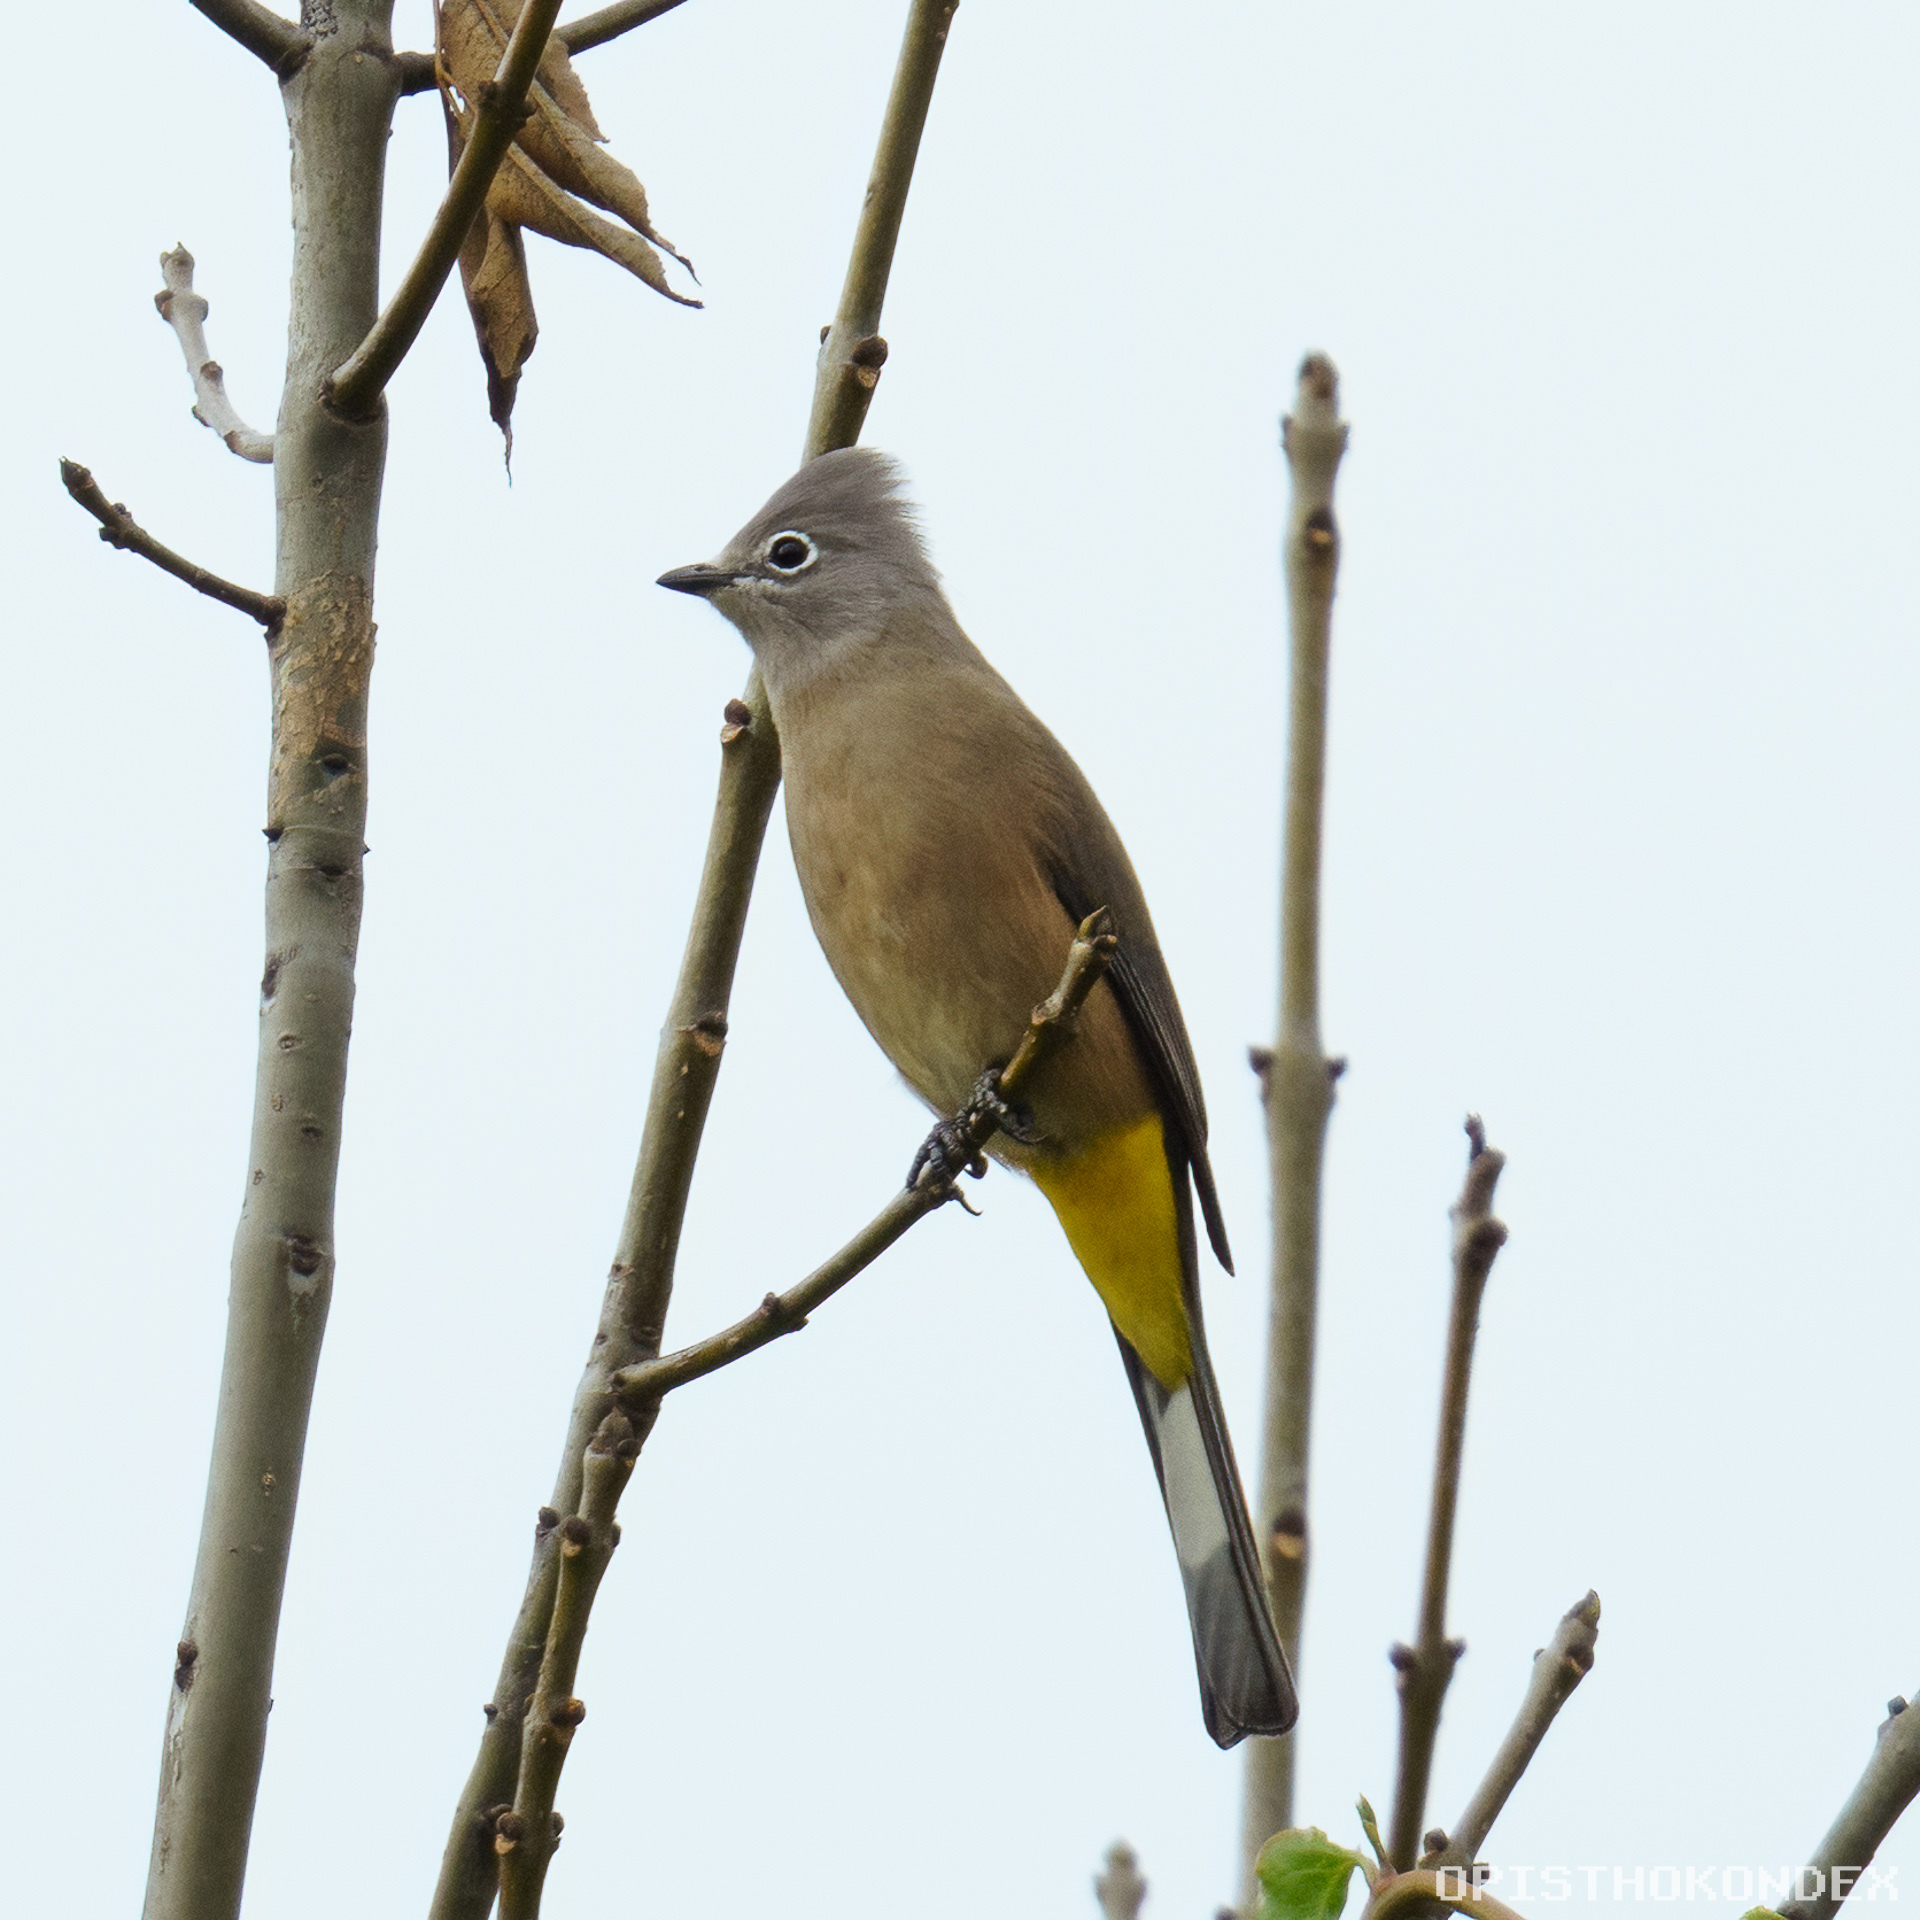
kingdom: Animalia
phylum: Chordata
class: Aves
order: Passeriformes
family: Ptilogonatidae
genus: Ptilogonys
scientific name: Ptilogonys cinereus
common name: Gray silky-flycatcher
